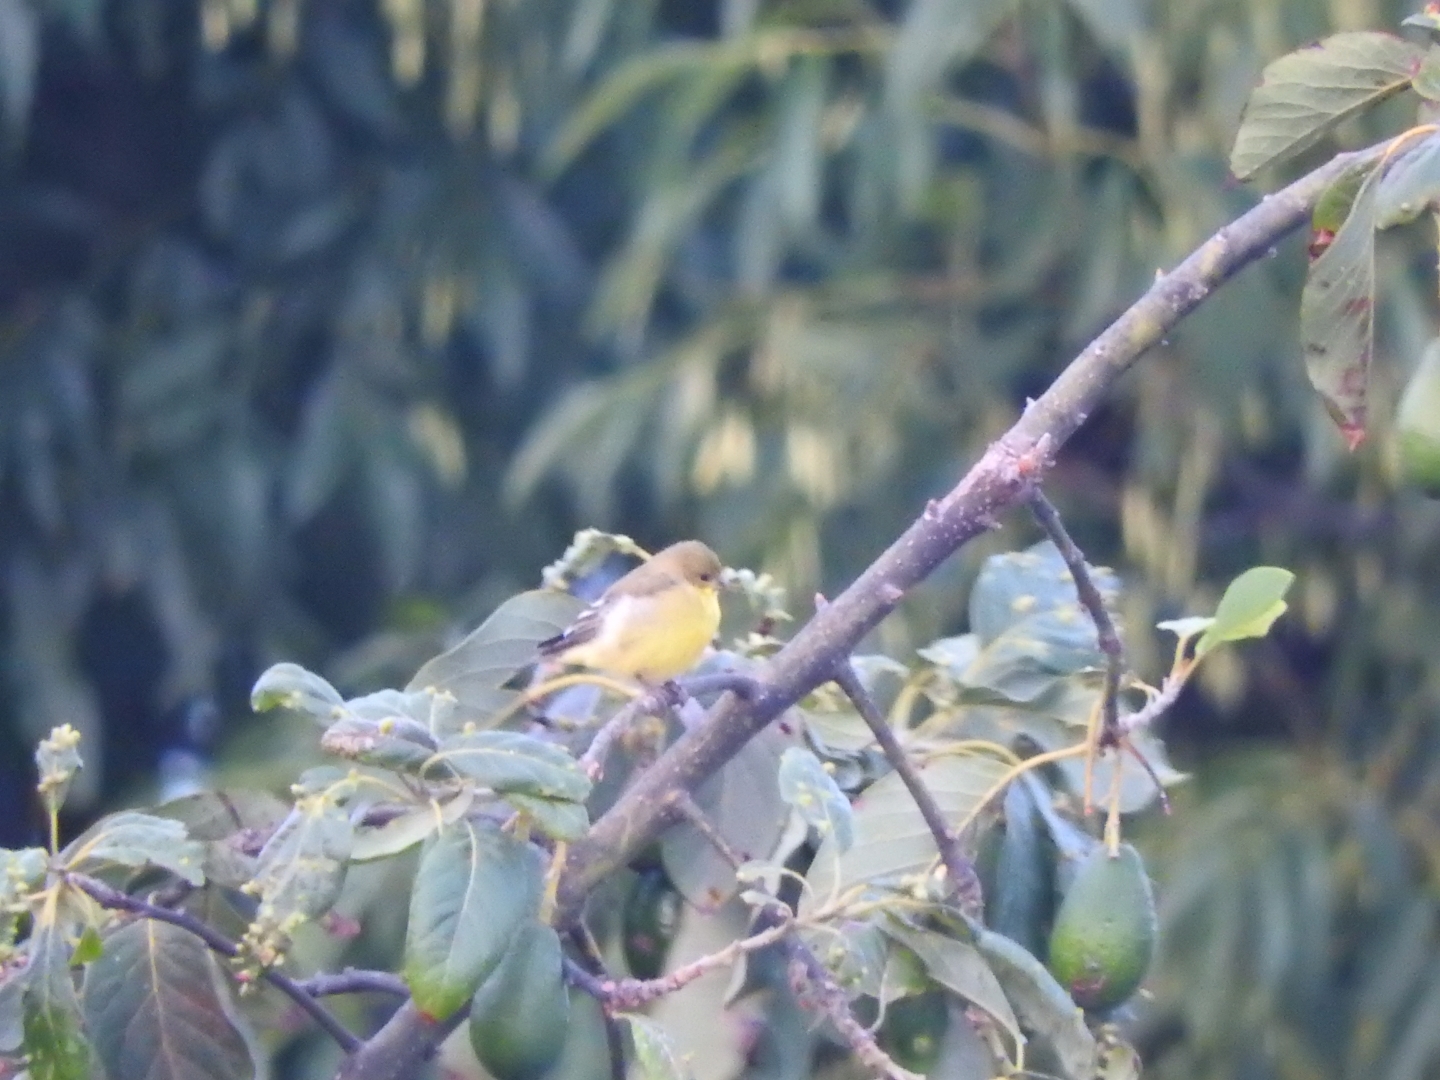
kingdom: Animalia
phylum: Chordata
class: Aves
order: Passeriformes
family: Fringillidae
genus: Spinus
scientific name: Spinus psaltria
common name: Lesser goldfinch
